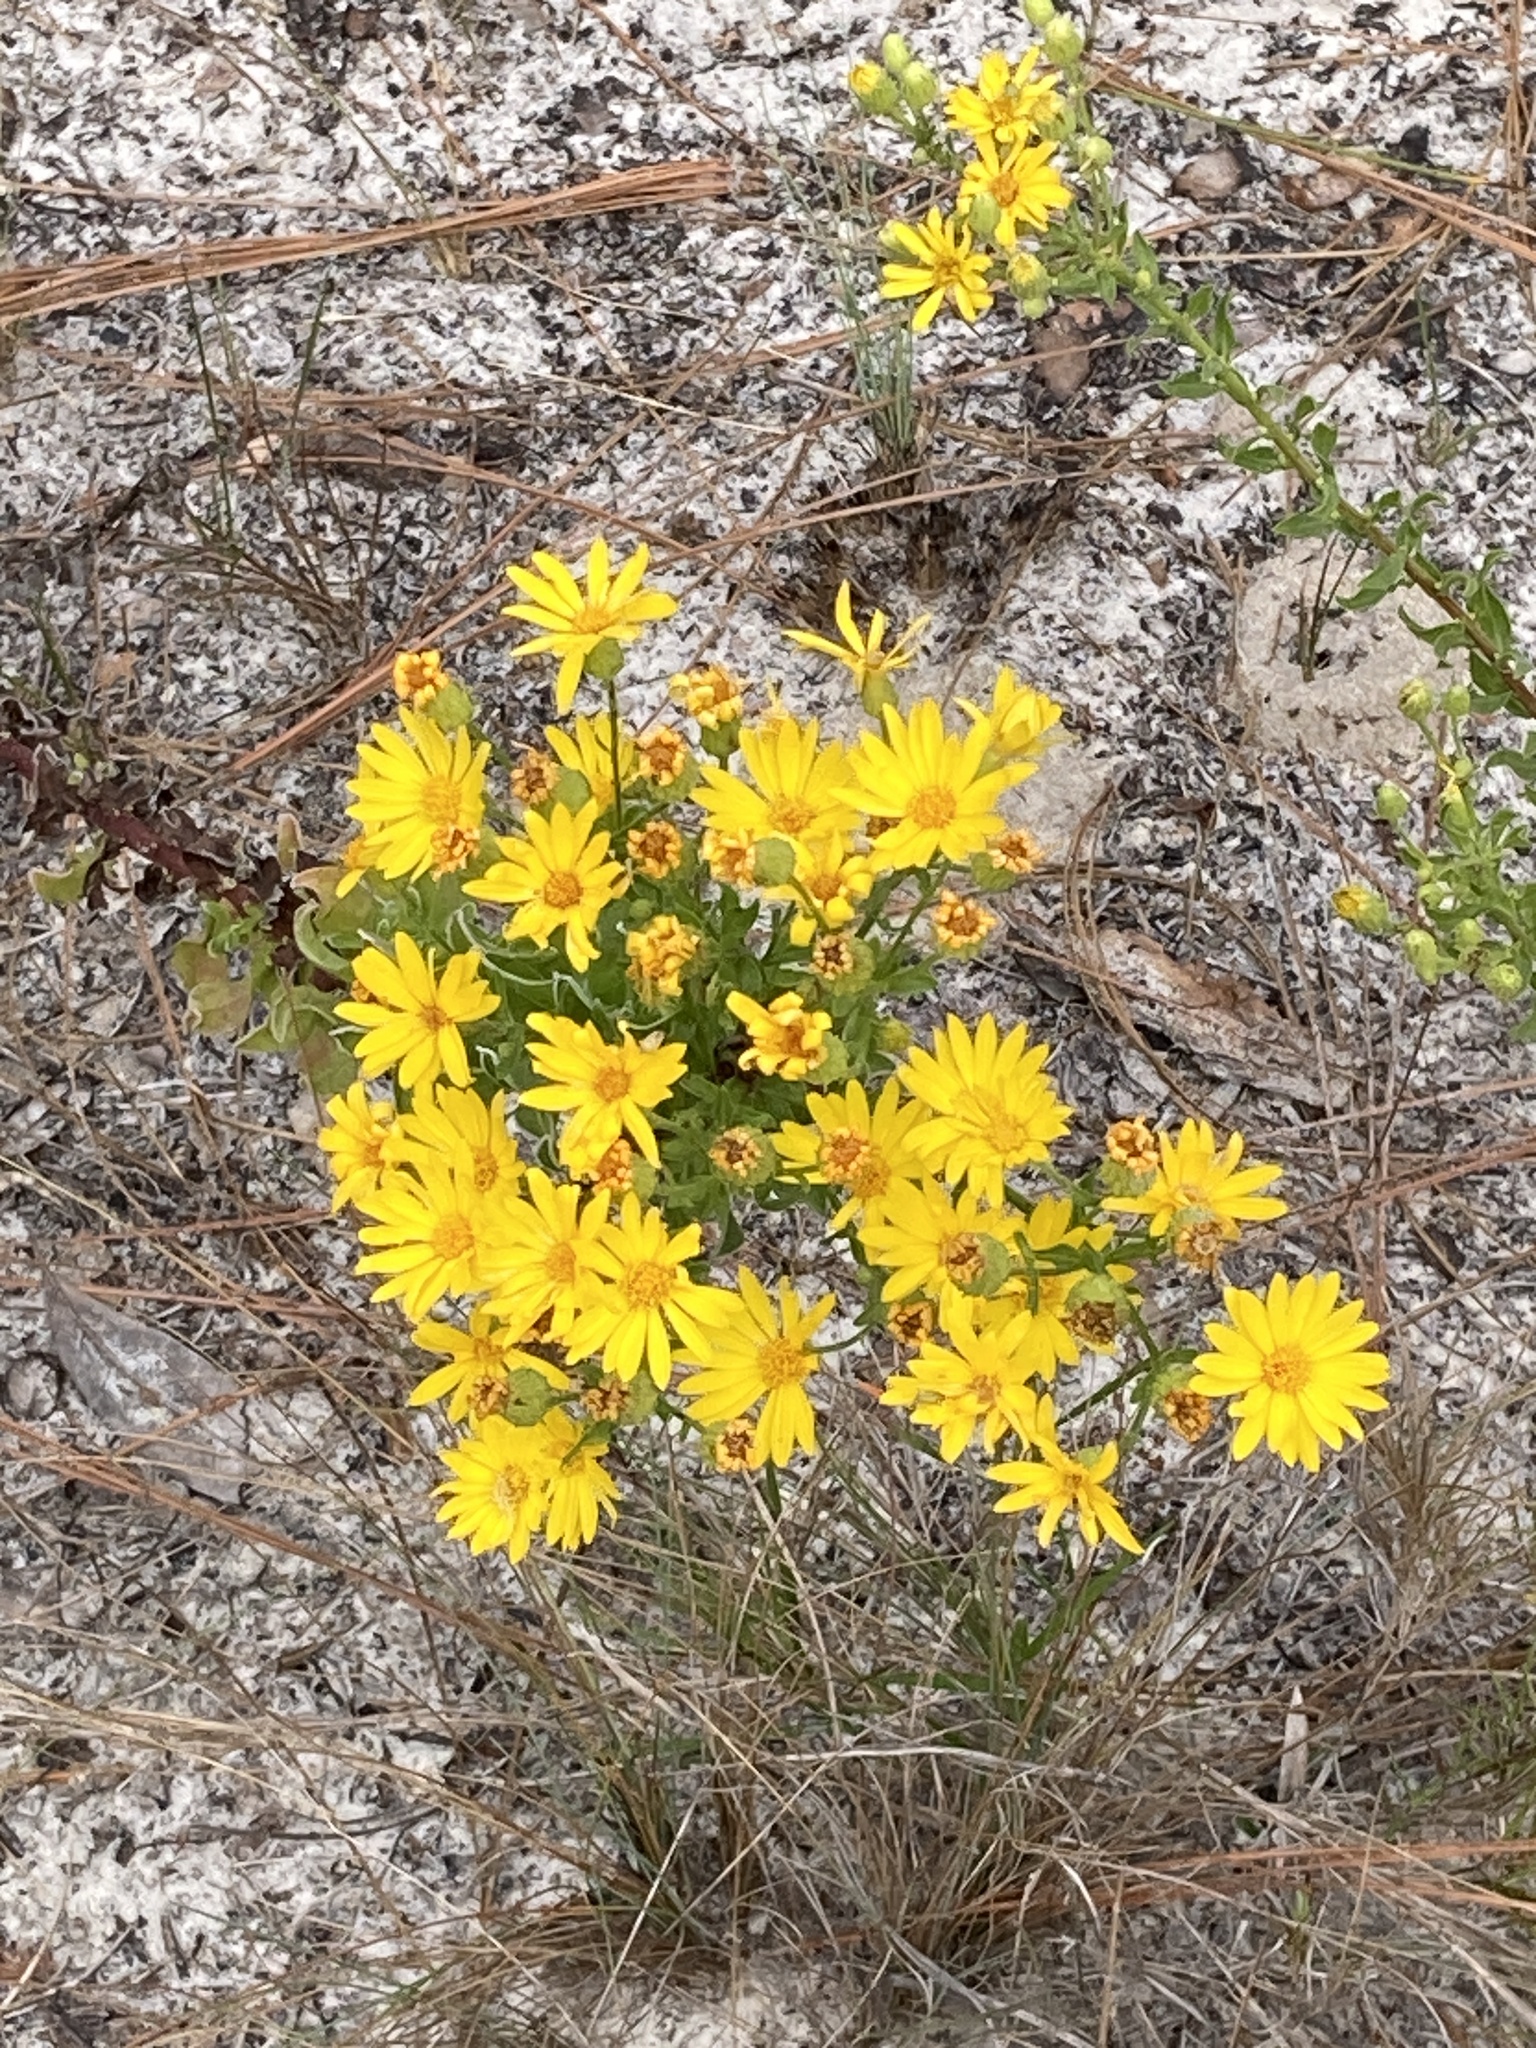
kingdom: Plantae
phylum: Tracheophyta
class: Magnoliopsida
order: Asterales
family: Asteraceae
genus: Chrysopsis
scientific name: Chrysopsis scabrella
